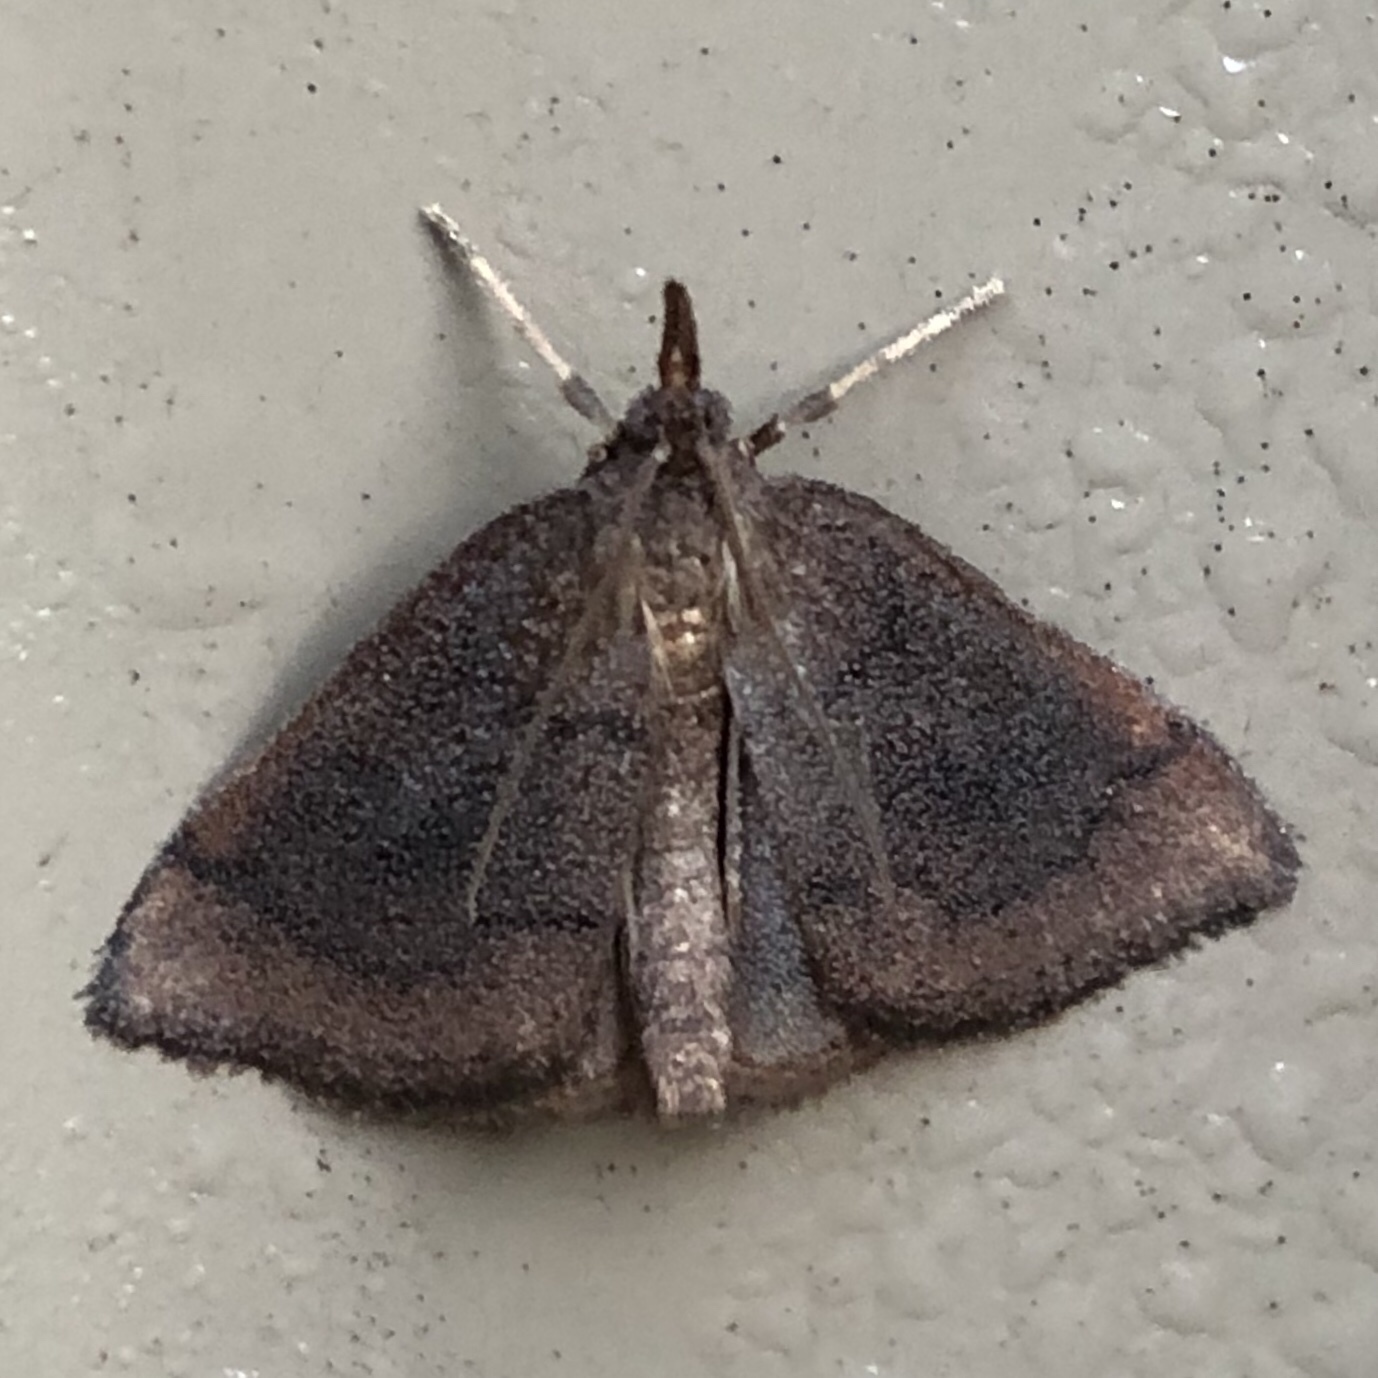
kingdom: Animalia
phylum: Arthropoda
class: Insecta
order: Lepidoptera
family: Crambidae
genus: Fumibotys
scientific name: Fumibotys fumalis
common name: Mint root borer moth
